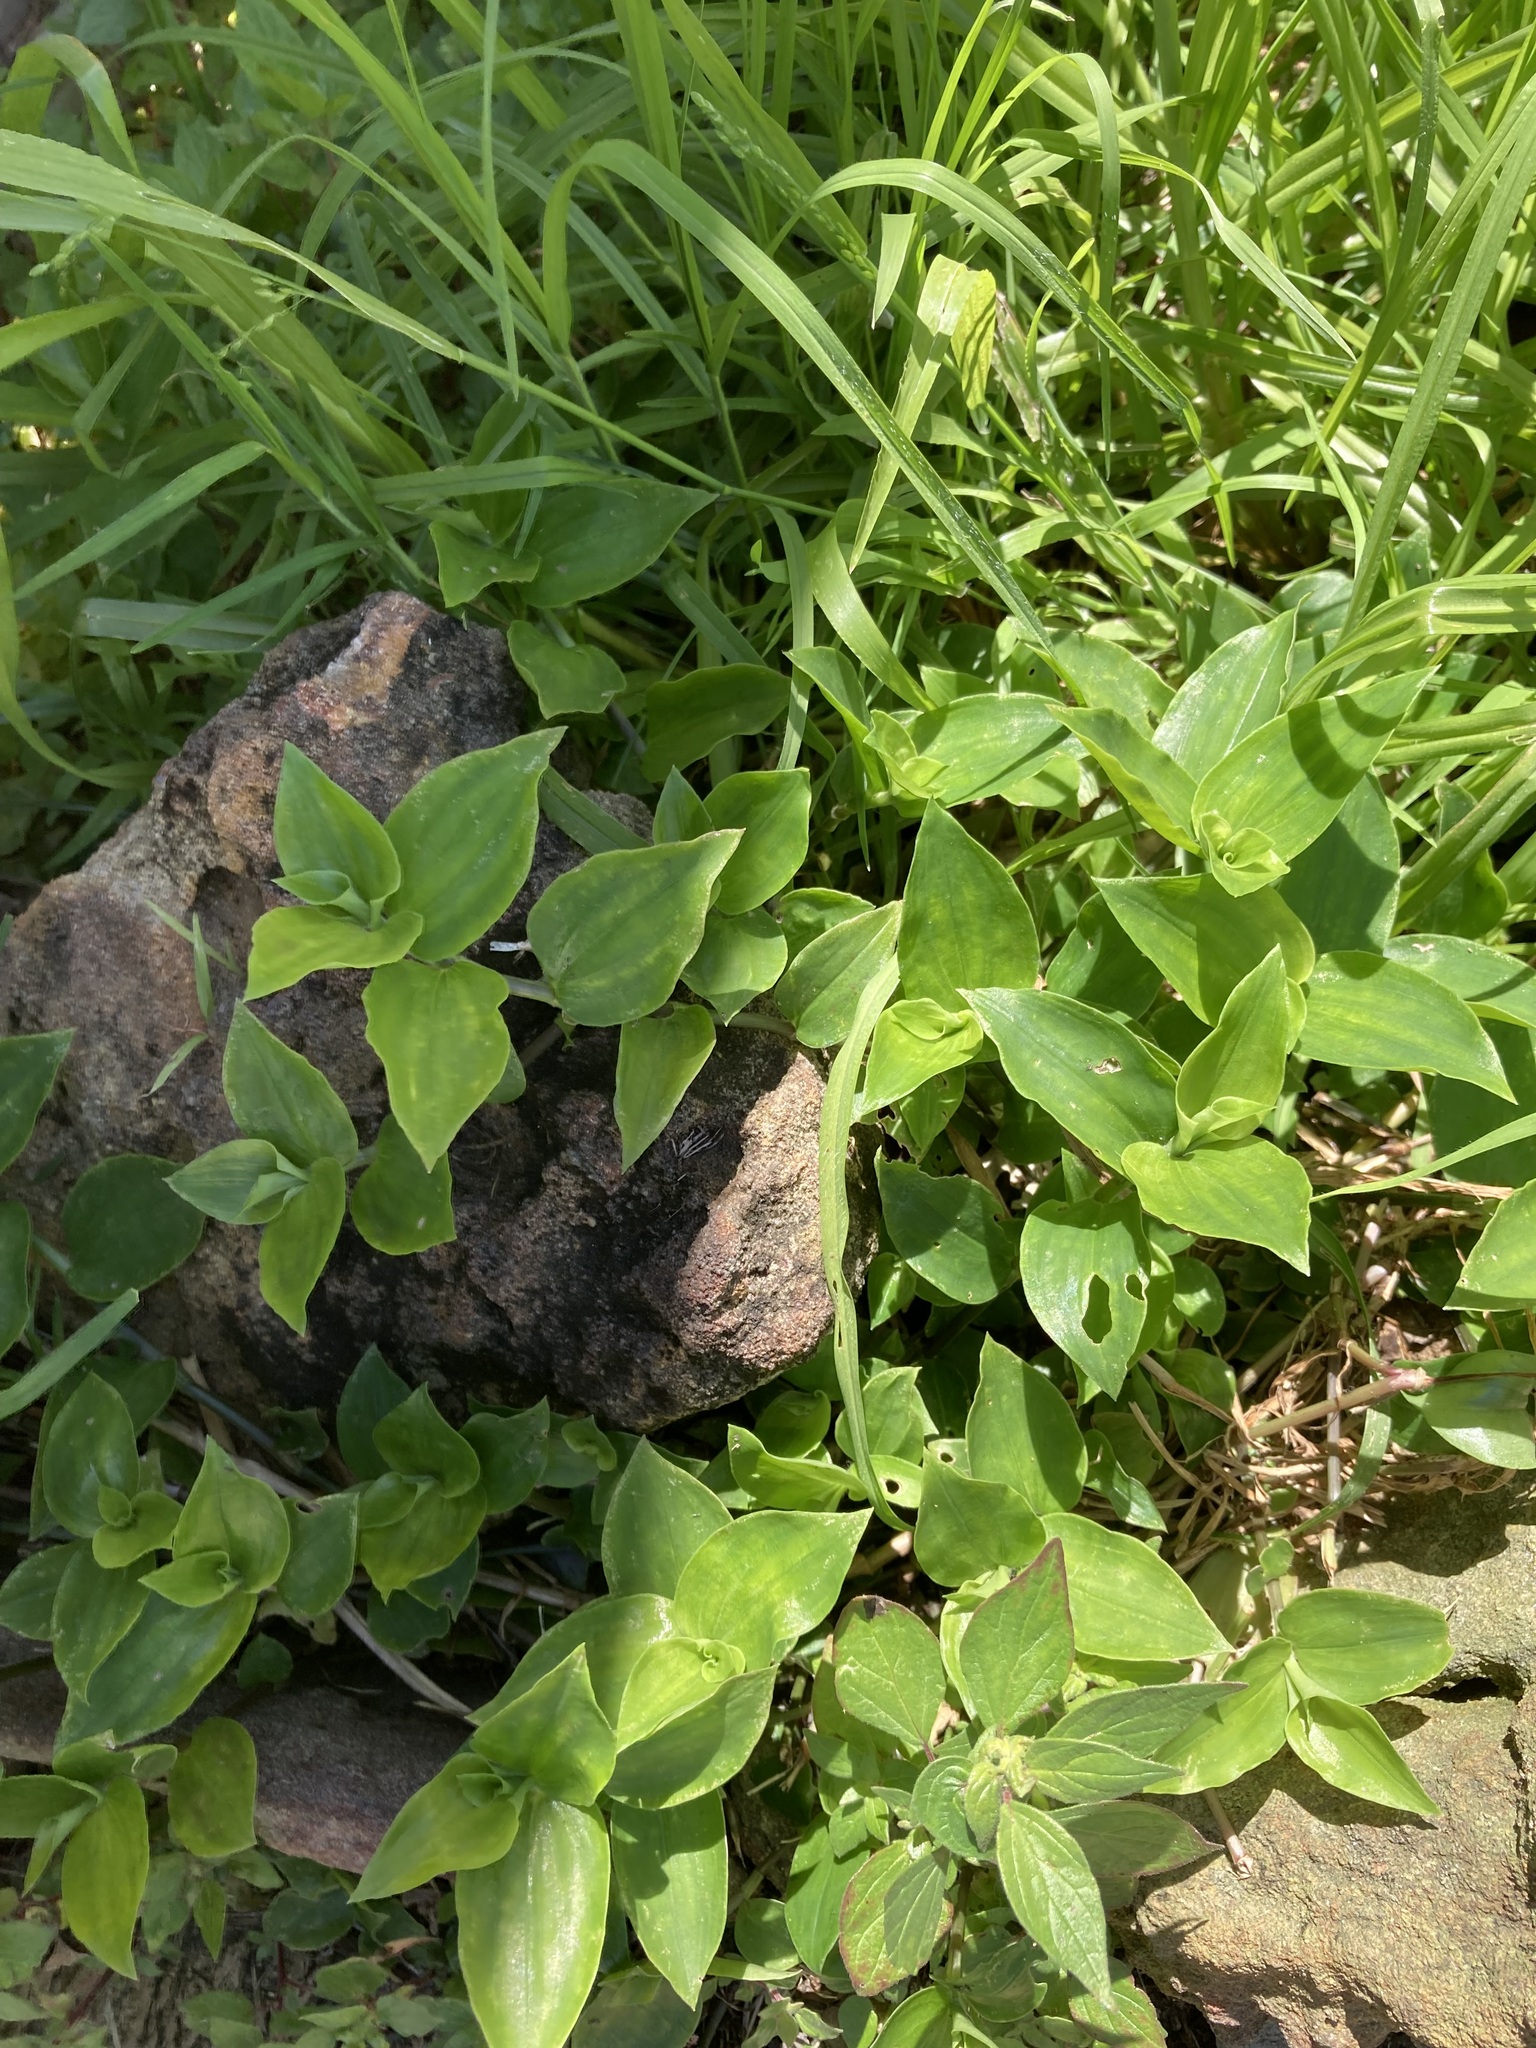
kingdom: Plantae
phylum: Tracheophyta
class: Liliopsida
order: Commelinales
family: Commelinaceae
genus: Tradescantia
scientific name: Tradescantia fluminensis
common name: Wandering-jew
